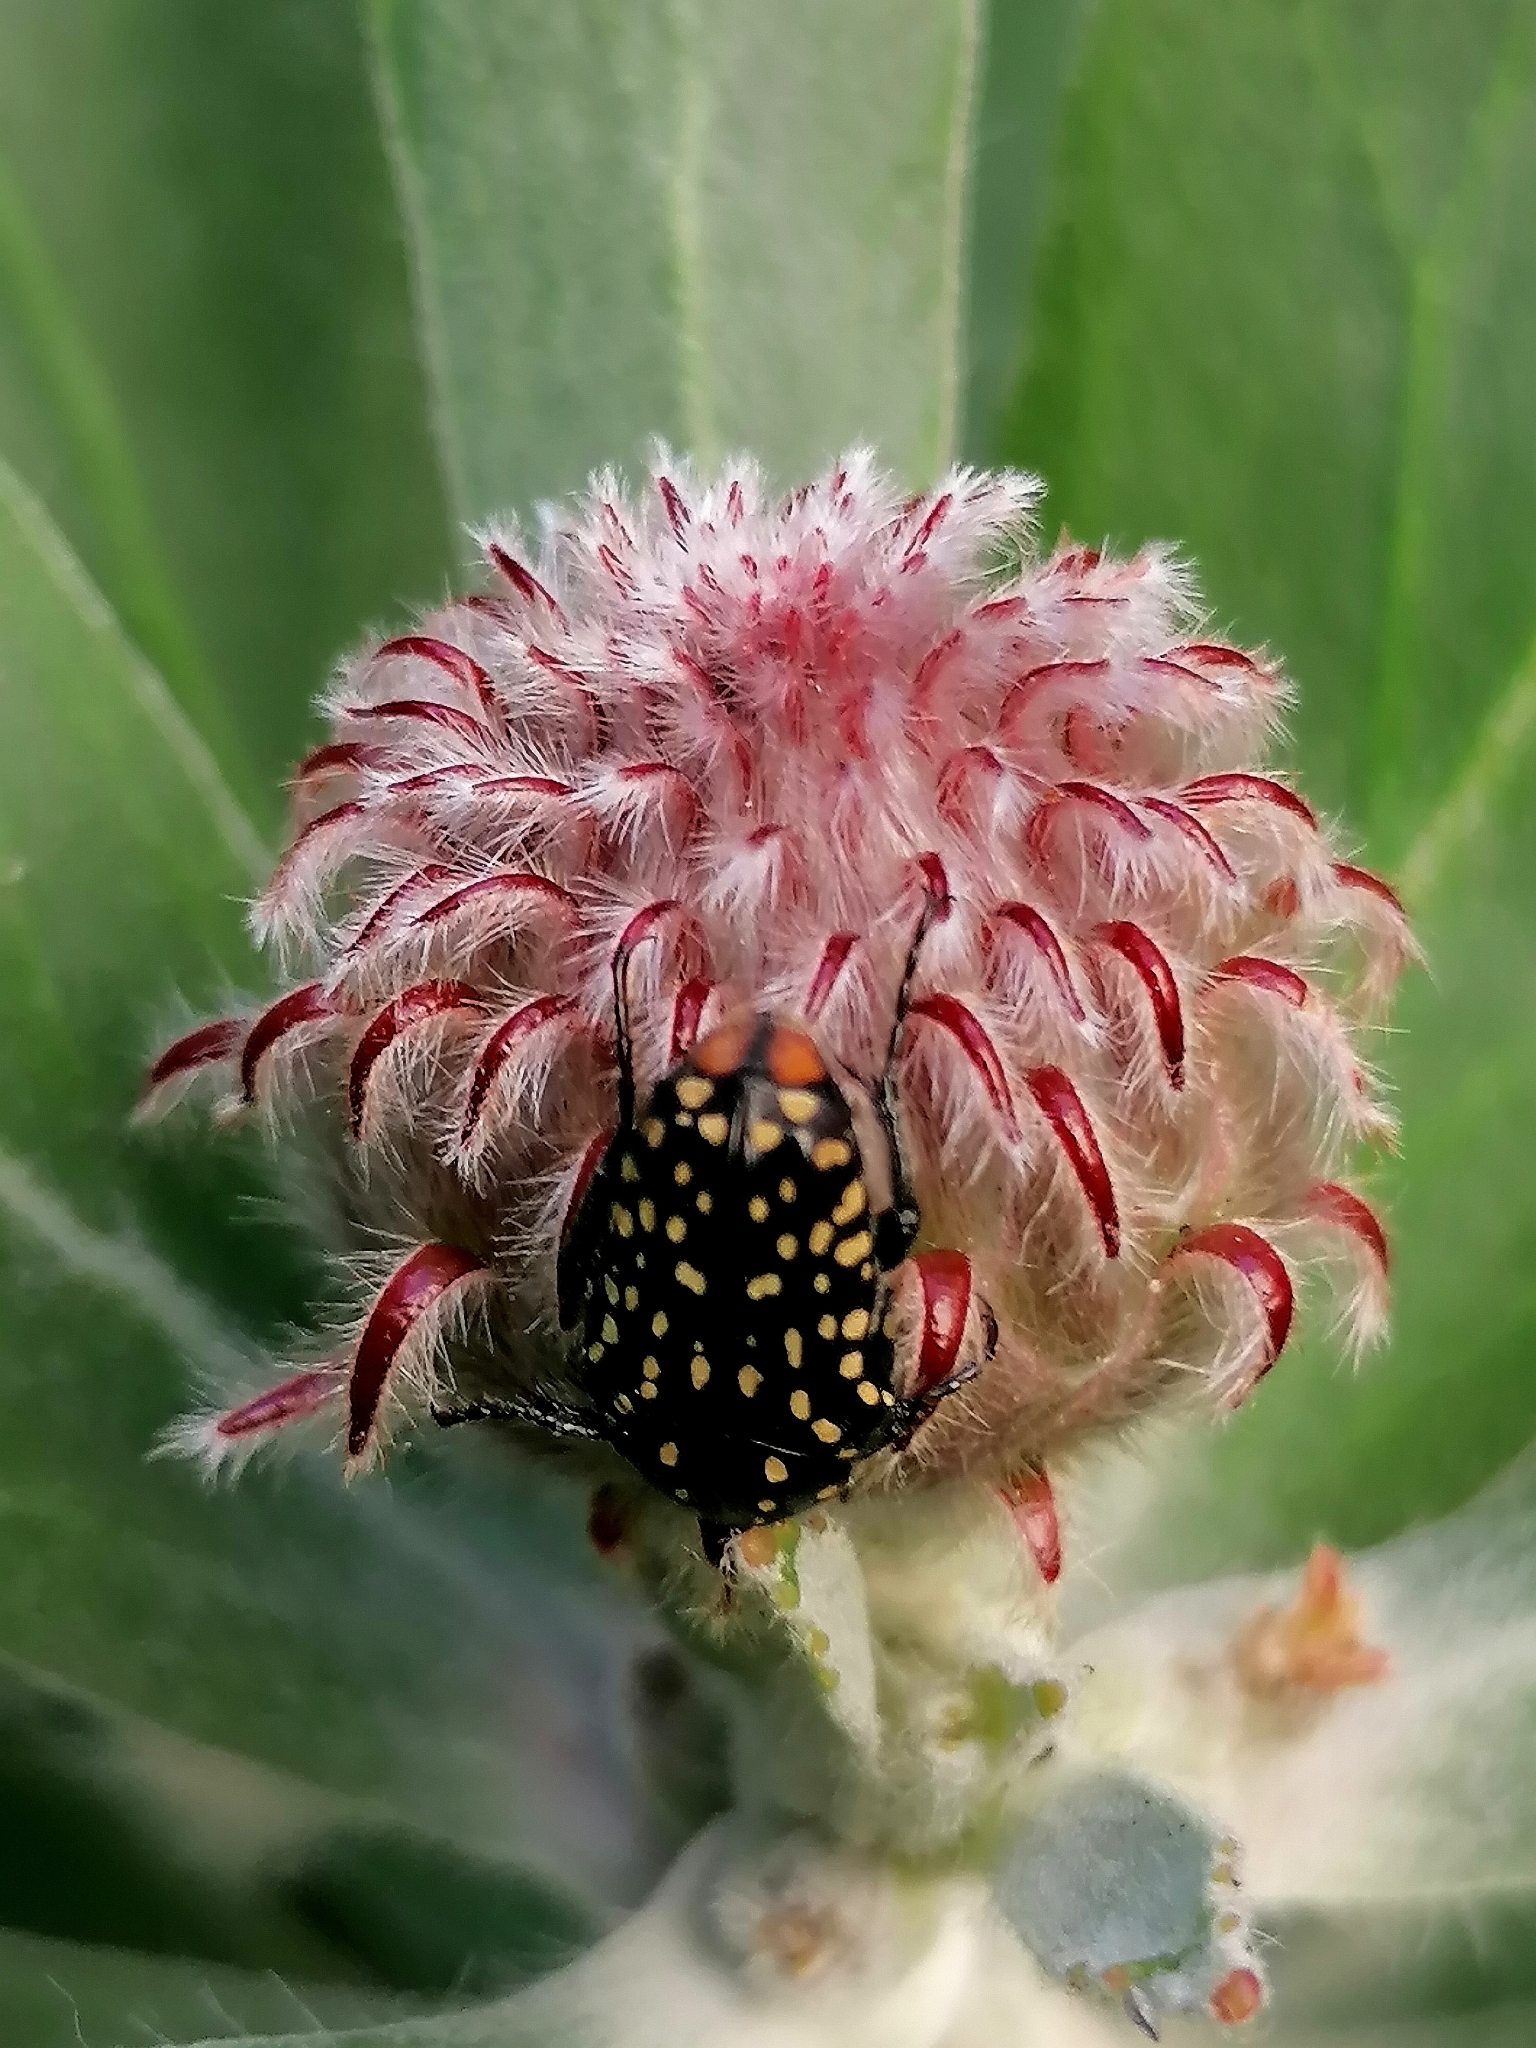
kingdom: Animalia
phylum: Arthropoda
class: Insecta
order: Coleoptera
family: Scarabaeidae
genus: Oxythyrea
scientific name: Oxythyrea
